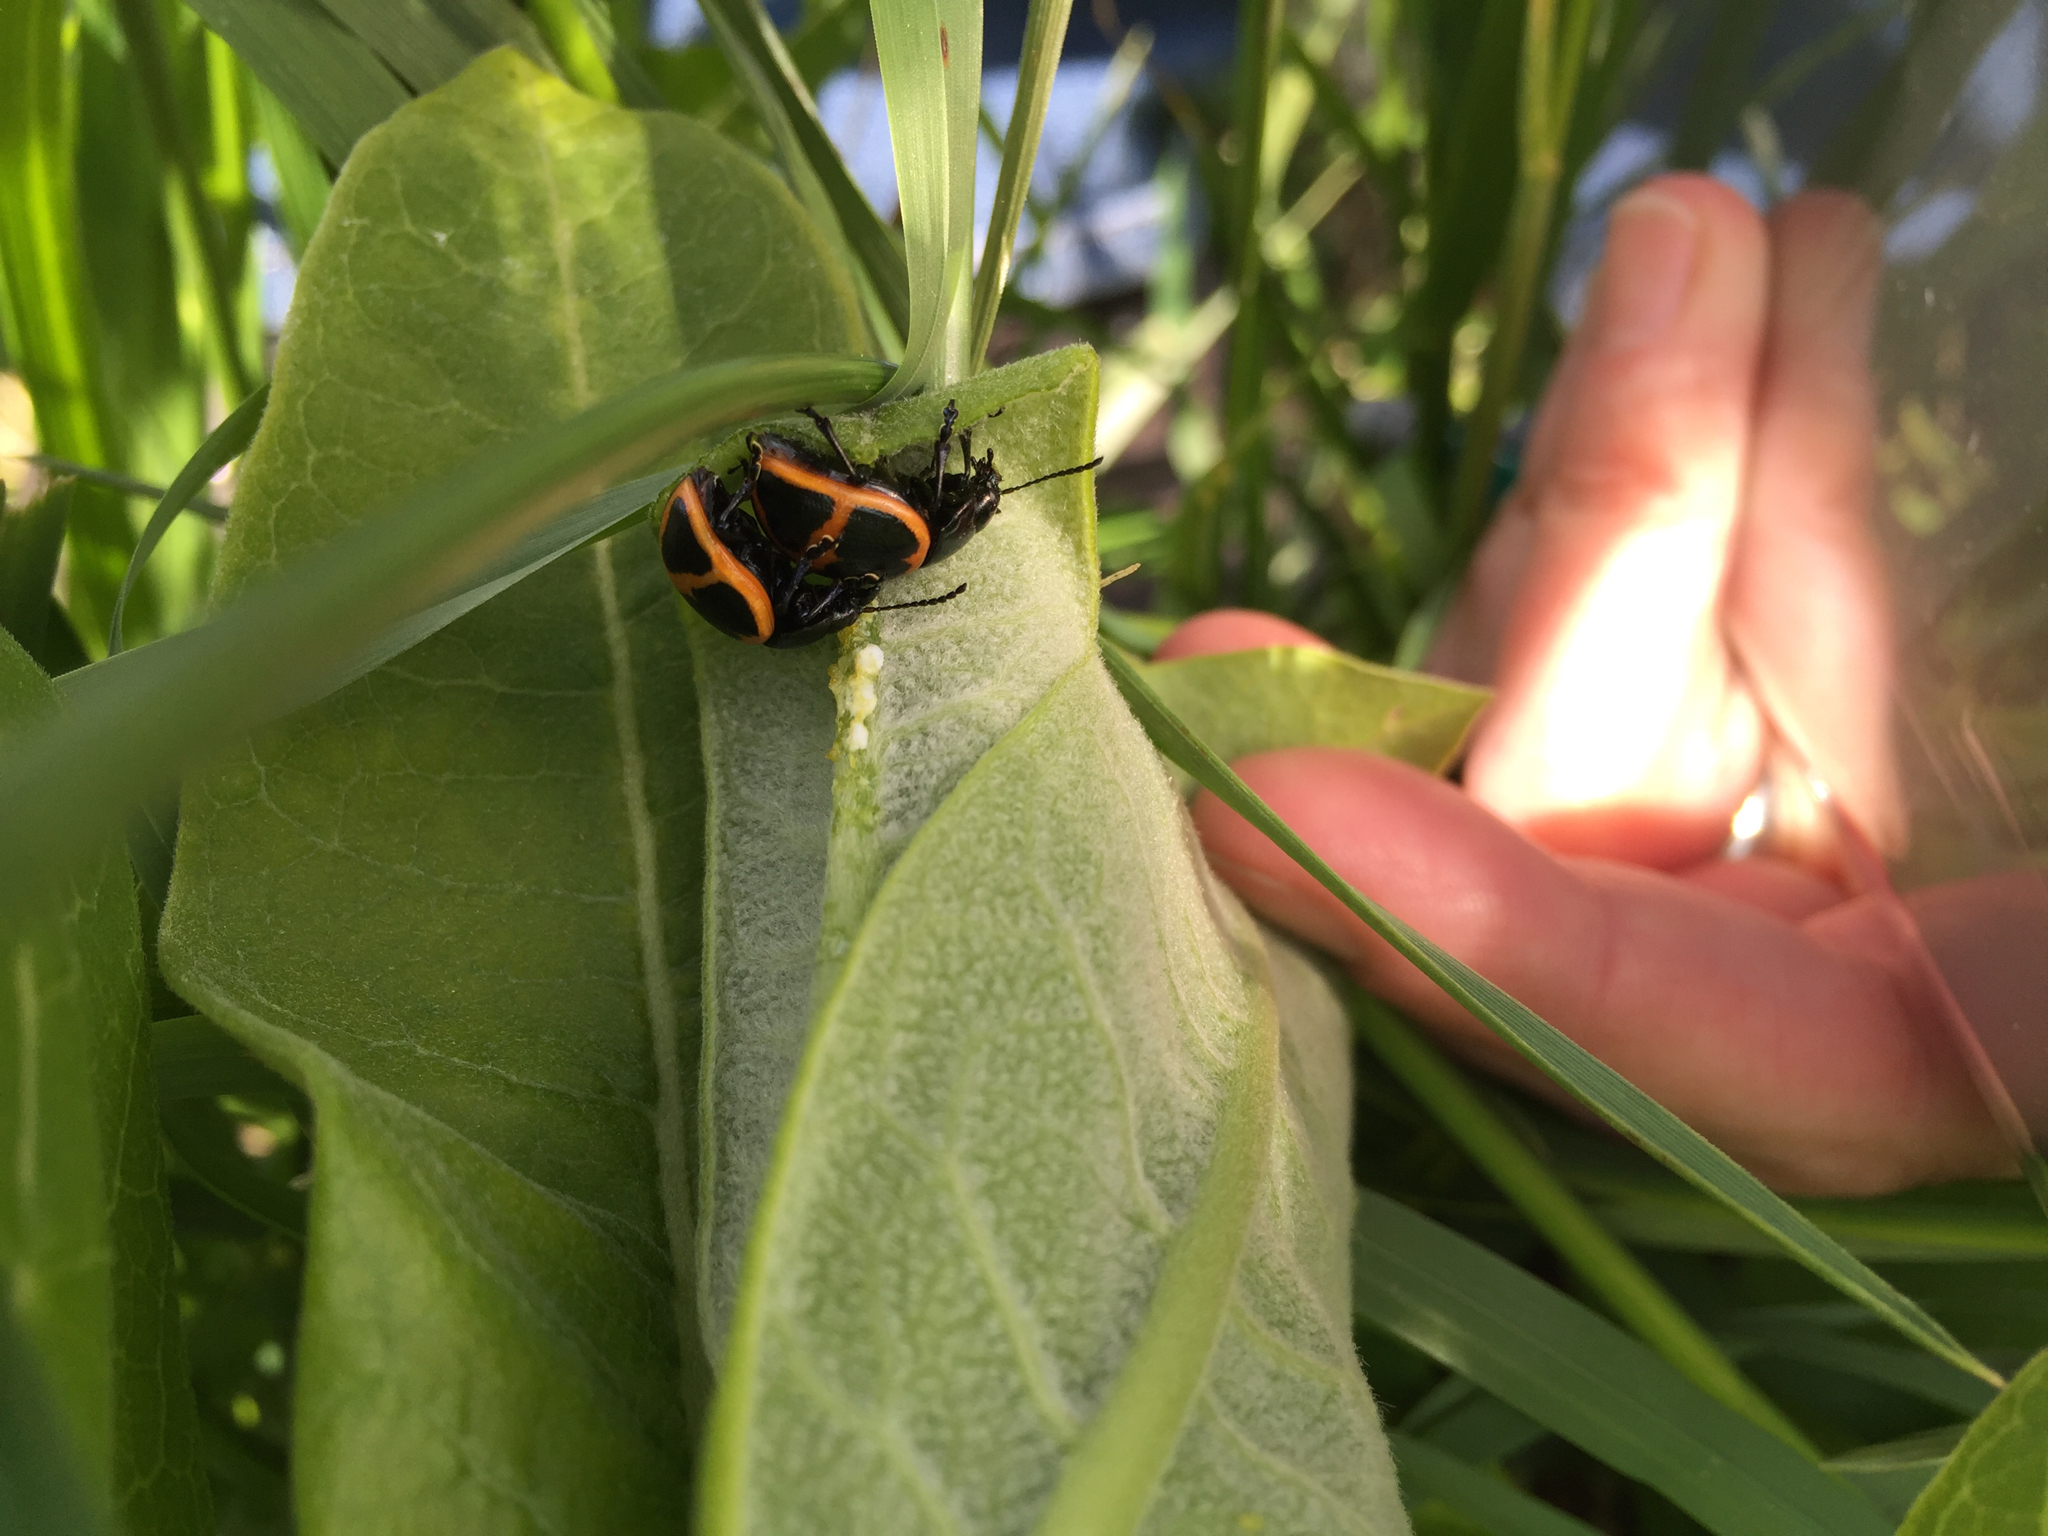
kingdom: Animalia
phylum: Arthropoda
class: Insecta
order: Coleoptera
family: Chrysomelidae
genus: Labidomera
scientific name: Labidomera clivicollis
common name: Swamp milkweed leaf beetle
